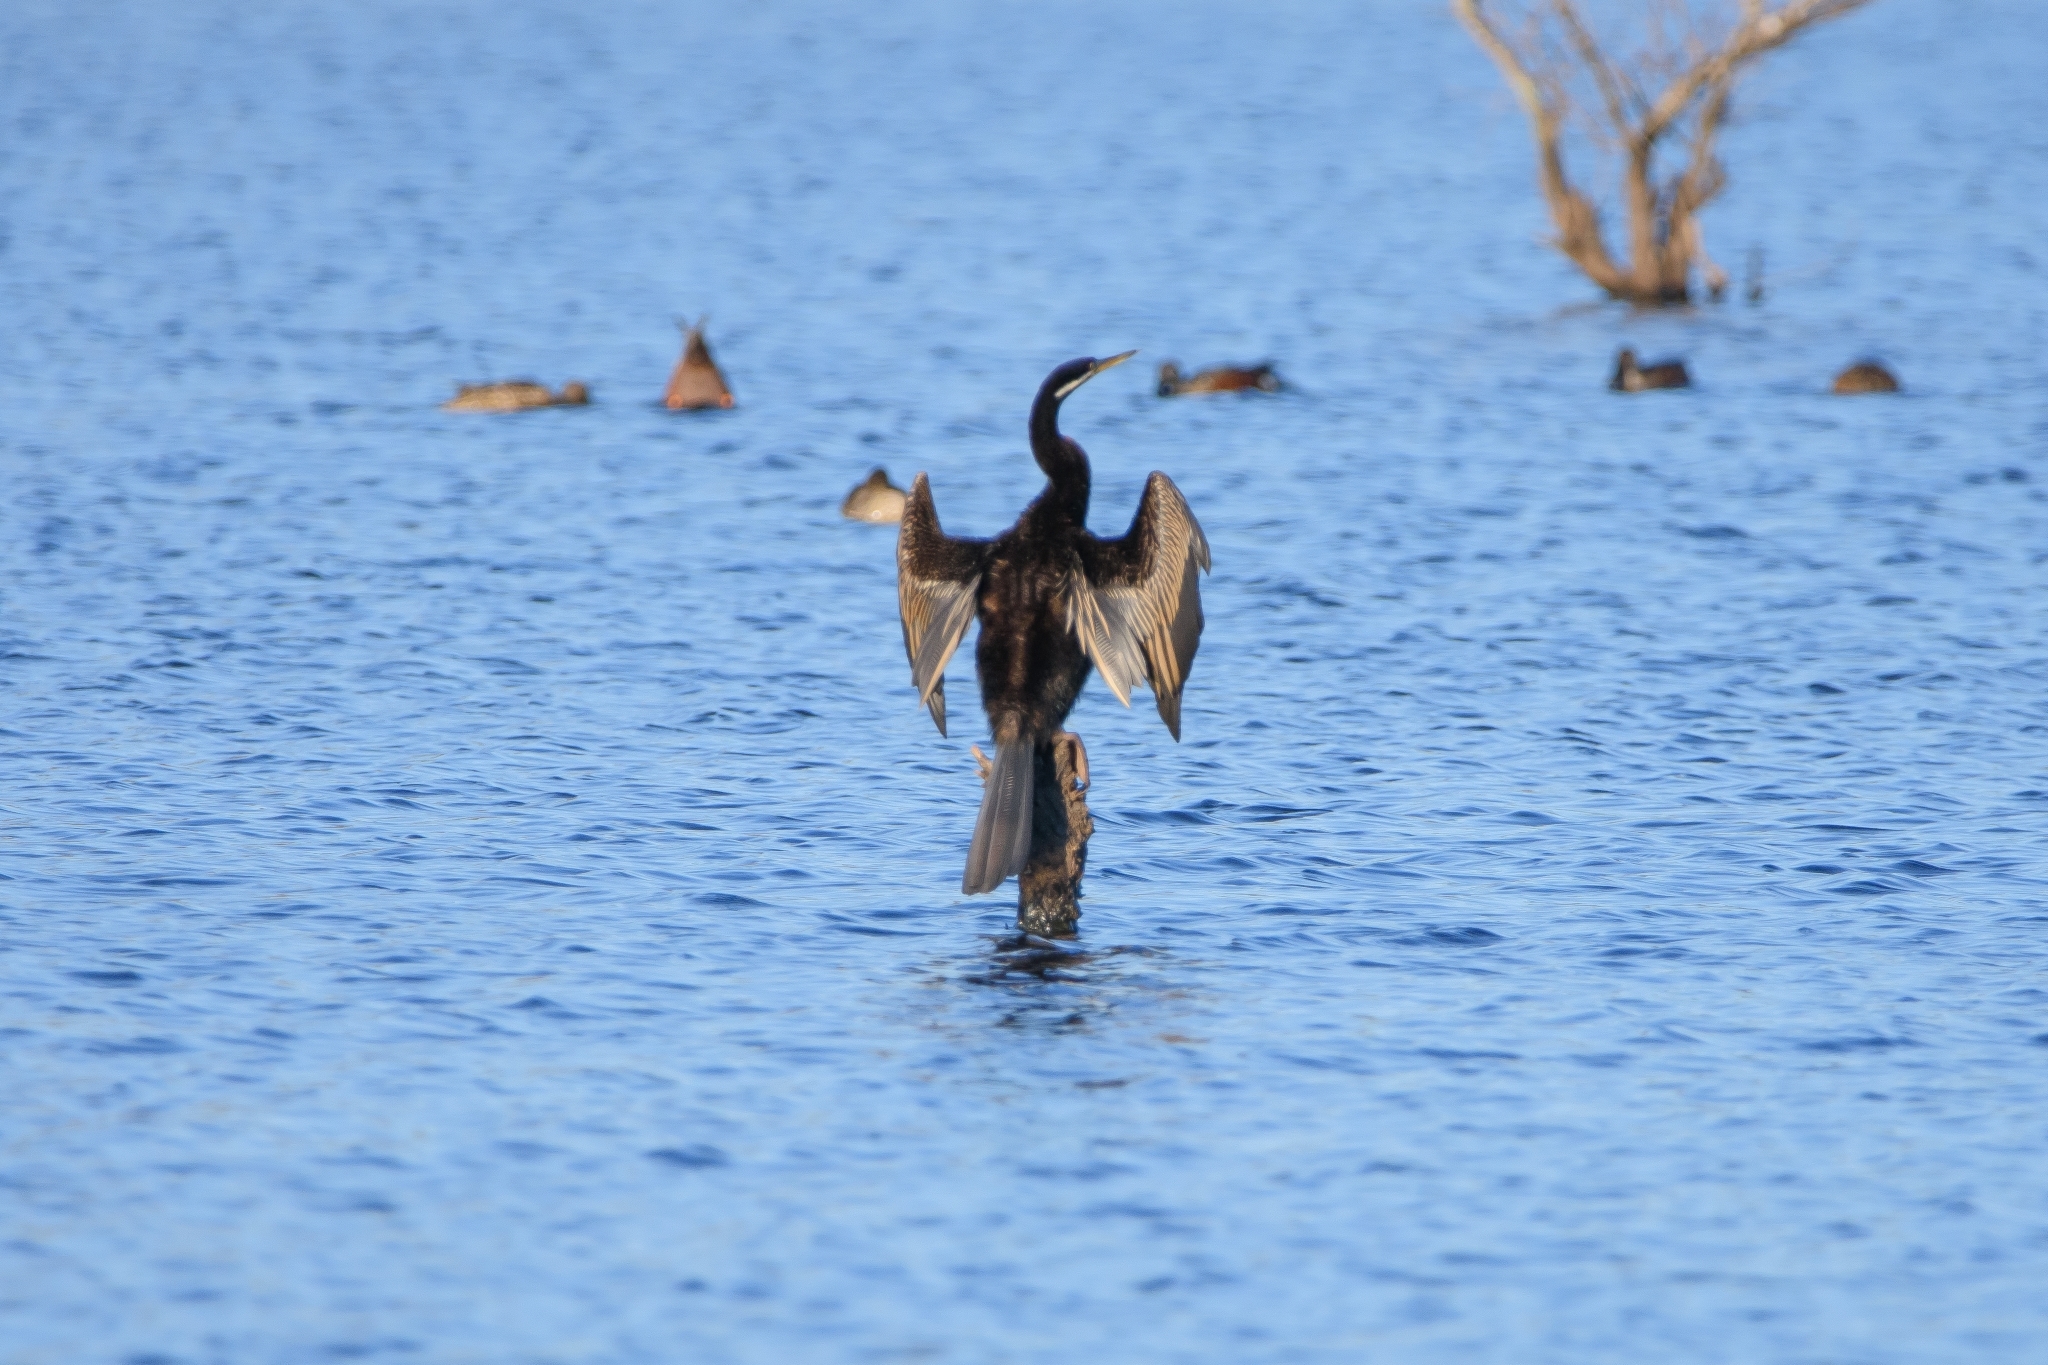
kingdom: Animalia
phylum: Chordata
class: Aves
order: Suliformes
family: Anhingidae
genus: Anhinga
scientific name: Anhinga novaehollandiae
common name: Australasian darter
